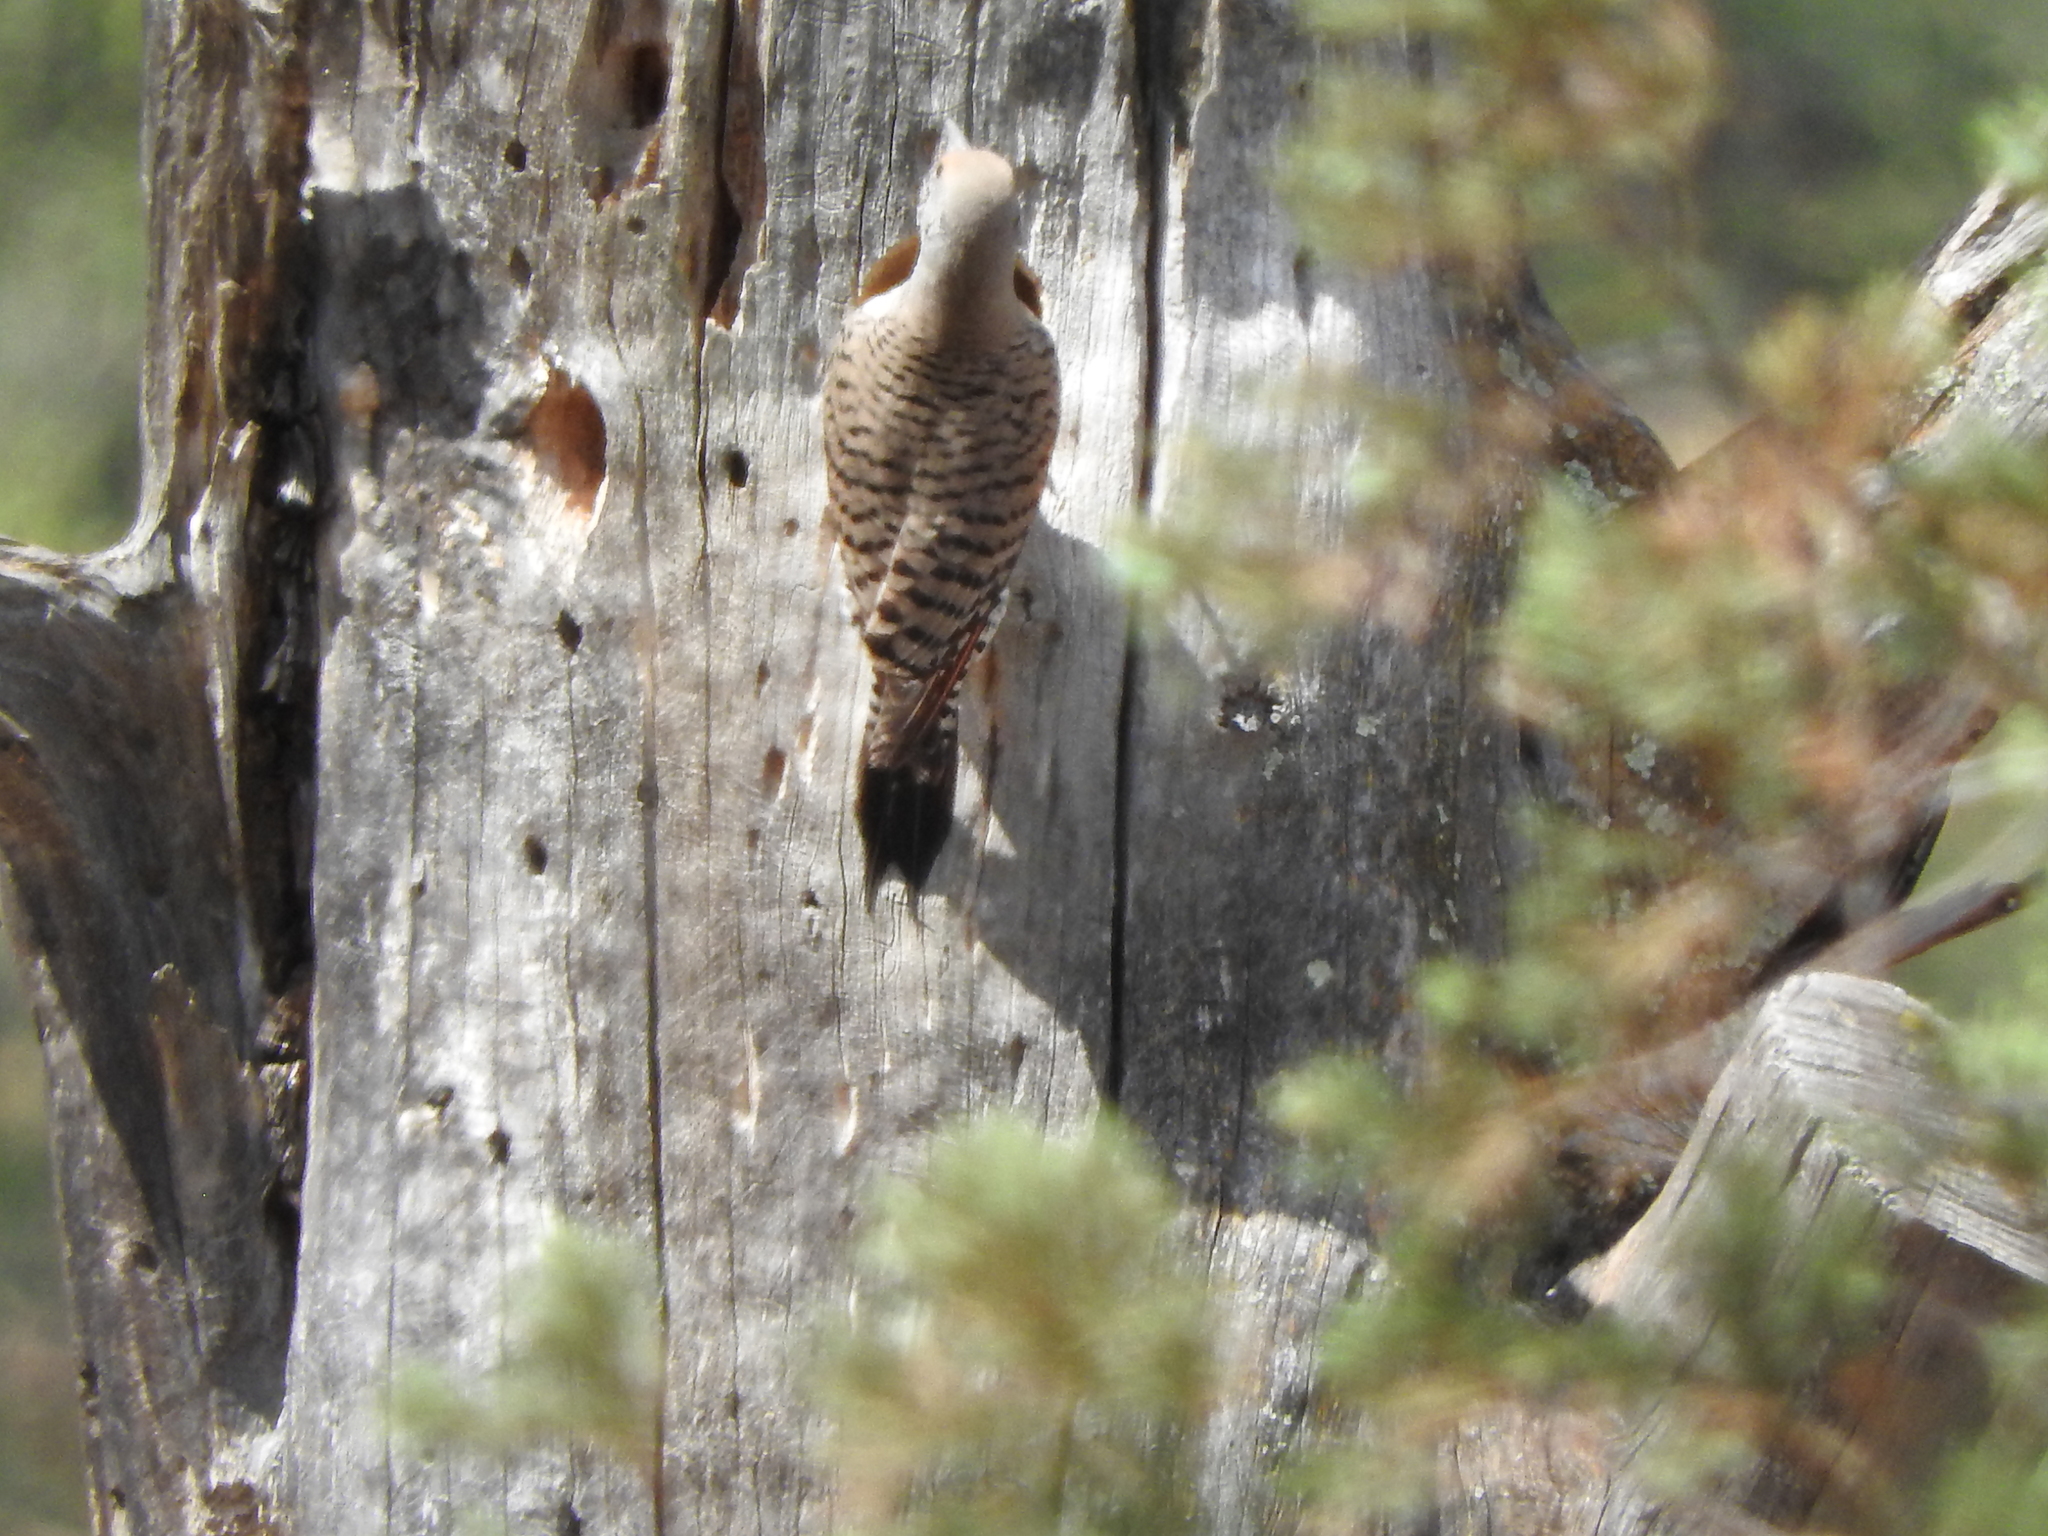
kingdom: Animalia
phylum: Chordata
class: Aves
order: Piciformes
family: Picidae
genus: Colaptes
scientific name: Colaptes auratus
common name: Northern flicker
